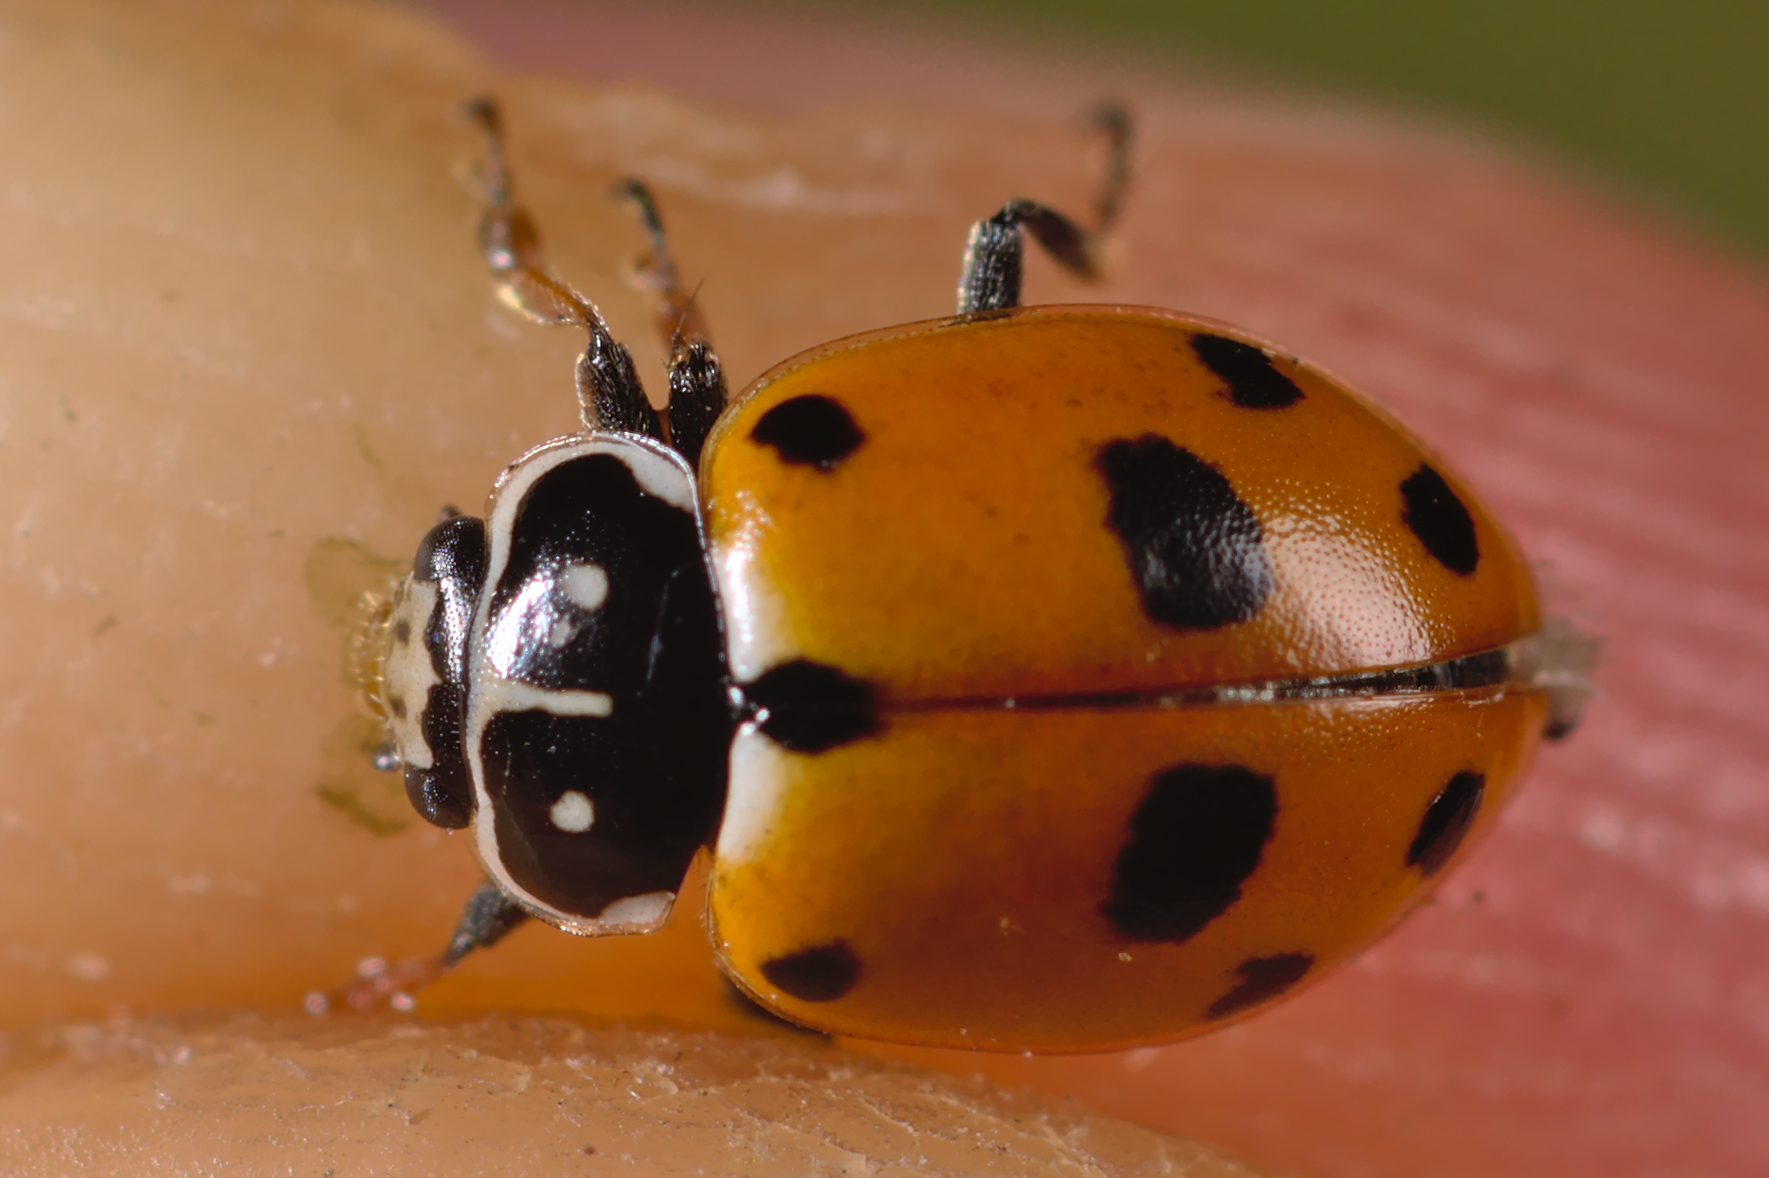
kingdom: Animalia
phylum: Arthropoda
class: Insecta
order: Coleoptera
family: Coccinellidae
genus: Hippodamia
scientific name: Hippodamia variegata
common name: Ladybird beetle
